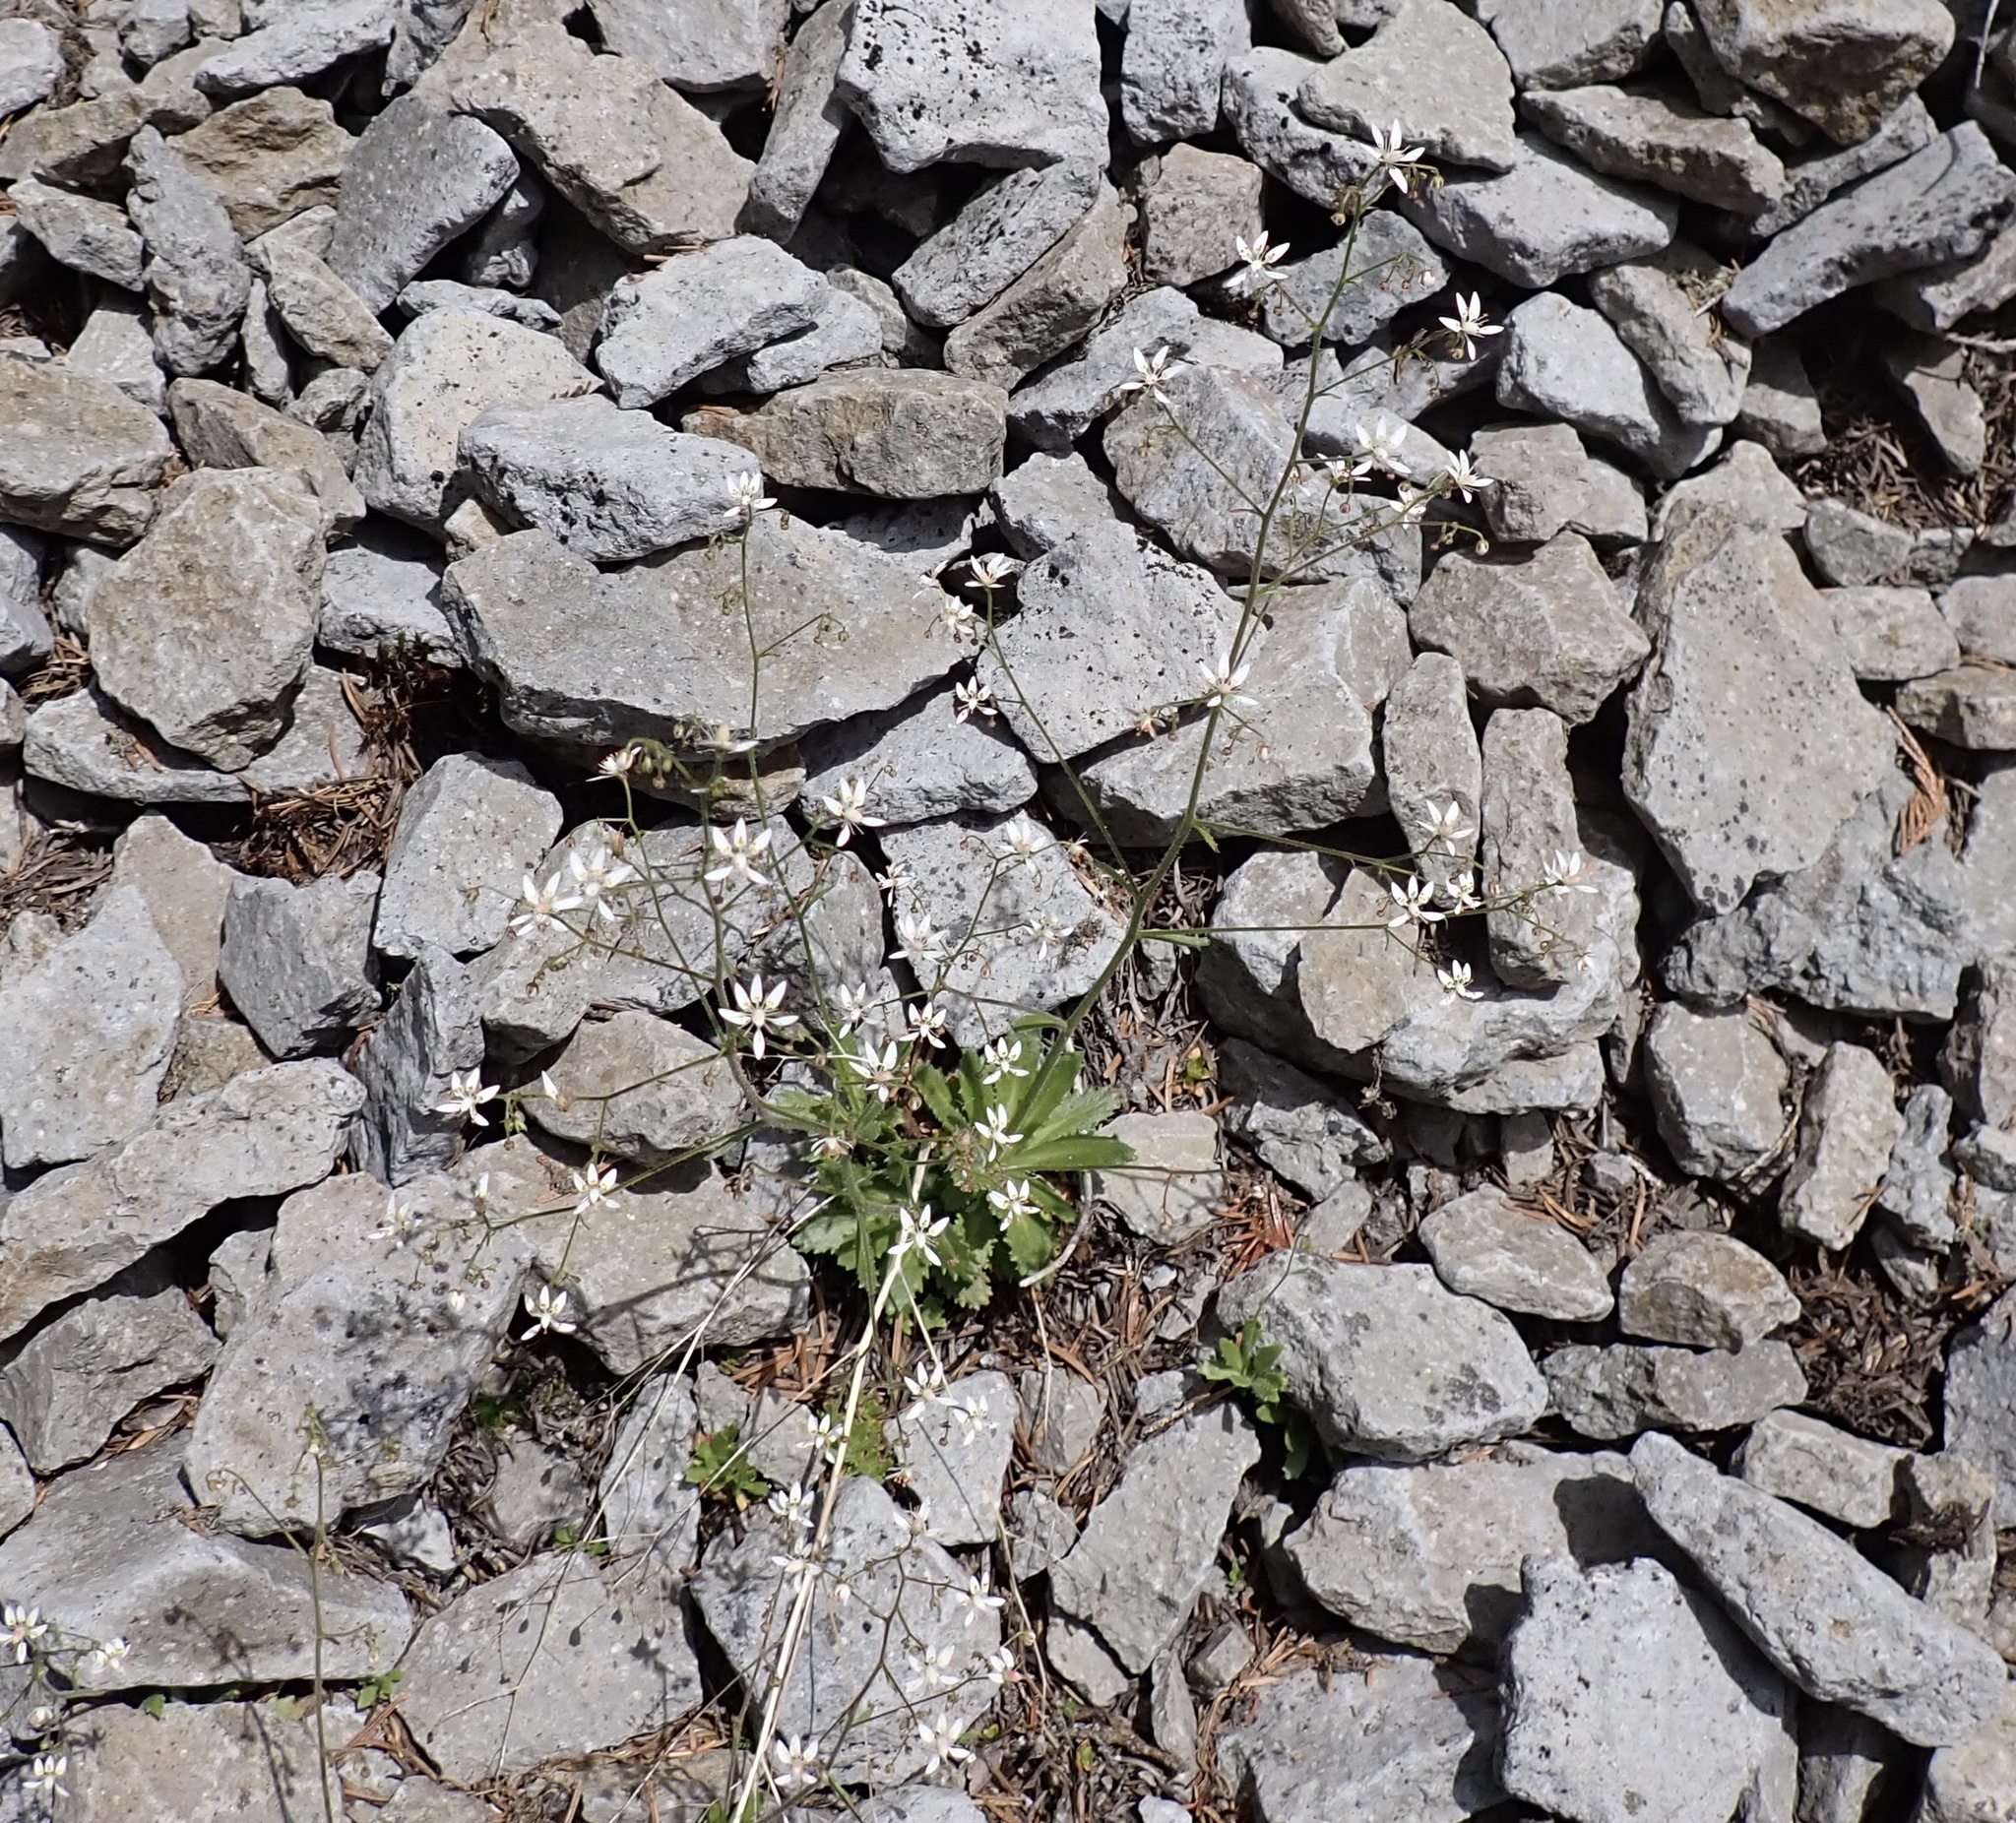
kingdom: Plantae
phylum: Tracheophyta
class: Magnoliopsida
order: Saxifragales
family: Saxifragaceae
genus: Micranthes
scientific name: Micranthes ferruginea
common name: Rusty saxifrage
